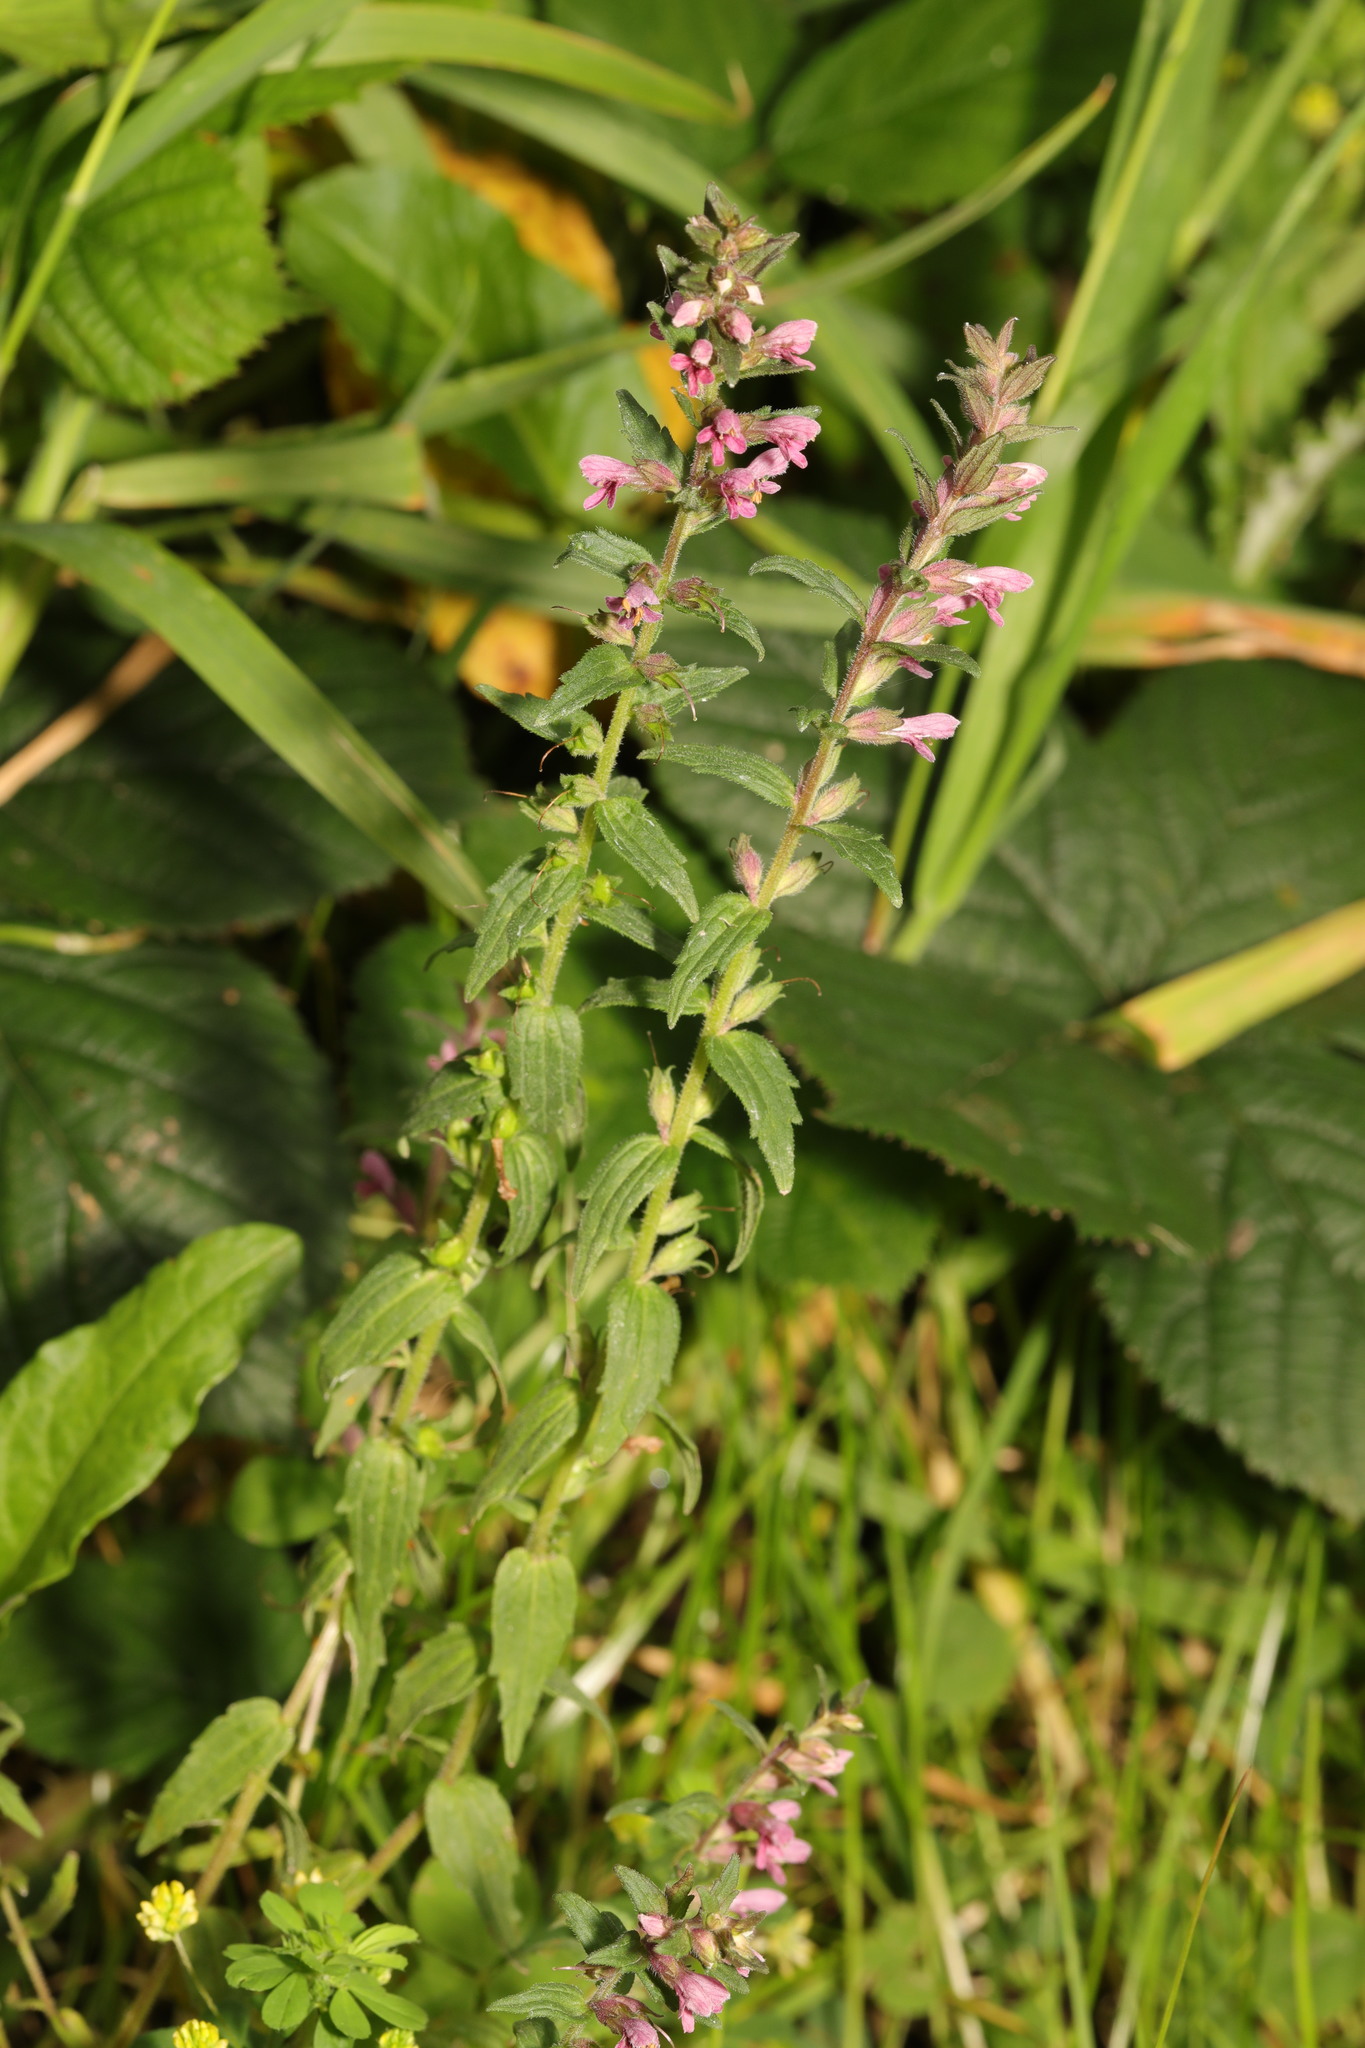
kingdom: Plantae
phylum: Tracheophyta
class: Magnoliopsida
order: Lamiales
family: Orobanchaceae
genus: Odontites
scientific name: Odontites vernus
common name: Red bartsia
